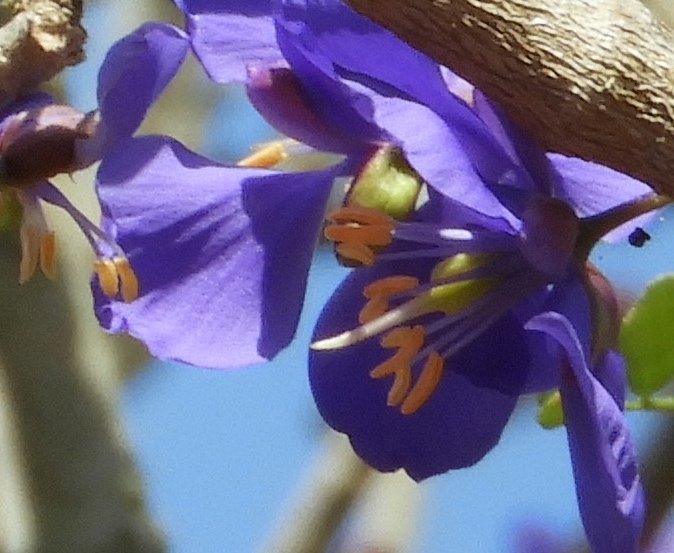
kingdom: Plantae
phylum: Tracheophyta
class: Magnoliopsida
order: Zygophyllales
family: Zygophyllaceae
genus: Guaiacum
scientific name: Guaiacum coulteri
